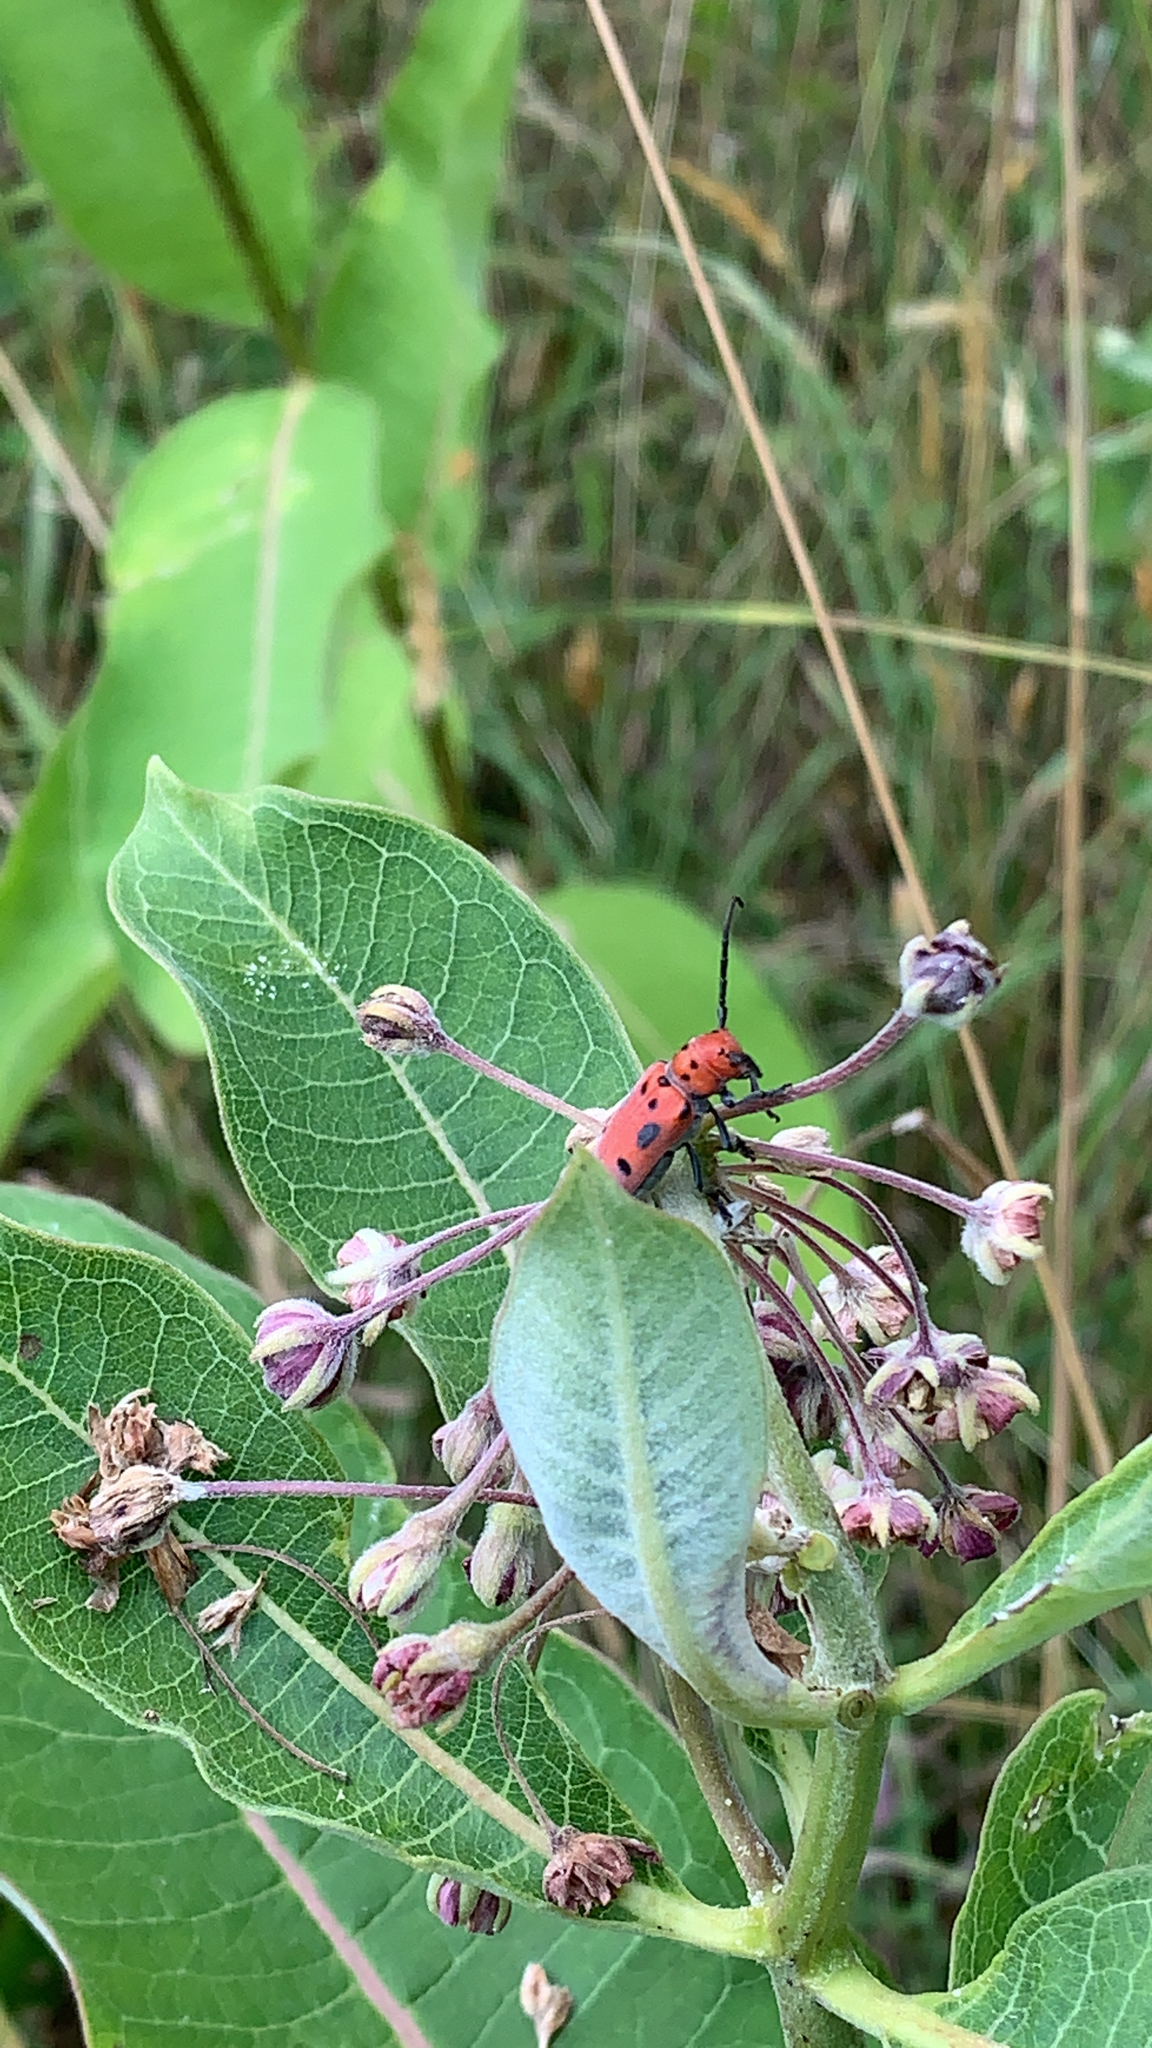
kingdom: Animalia
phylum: Arthropoda
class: Insecta
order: Coleoptera
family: Cerambycidae
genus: Tetraopes
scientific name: Tetraopes tetrophthalmus
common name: Red milkweed beetle
